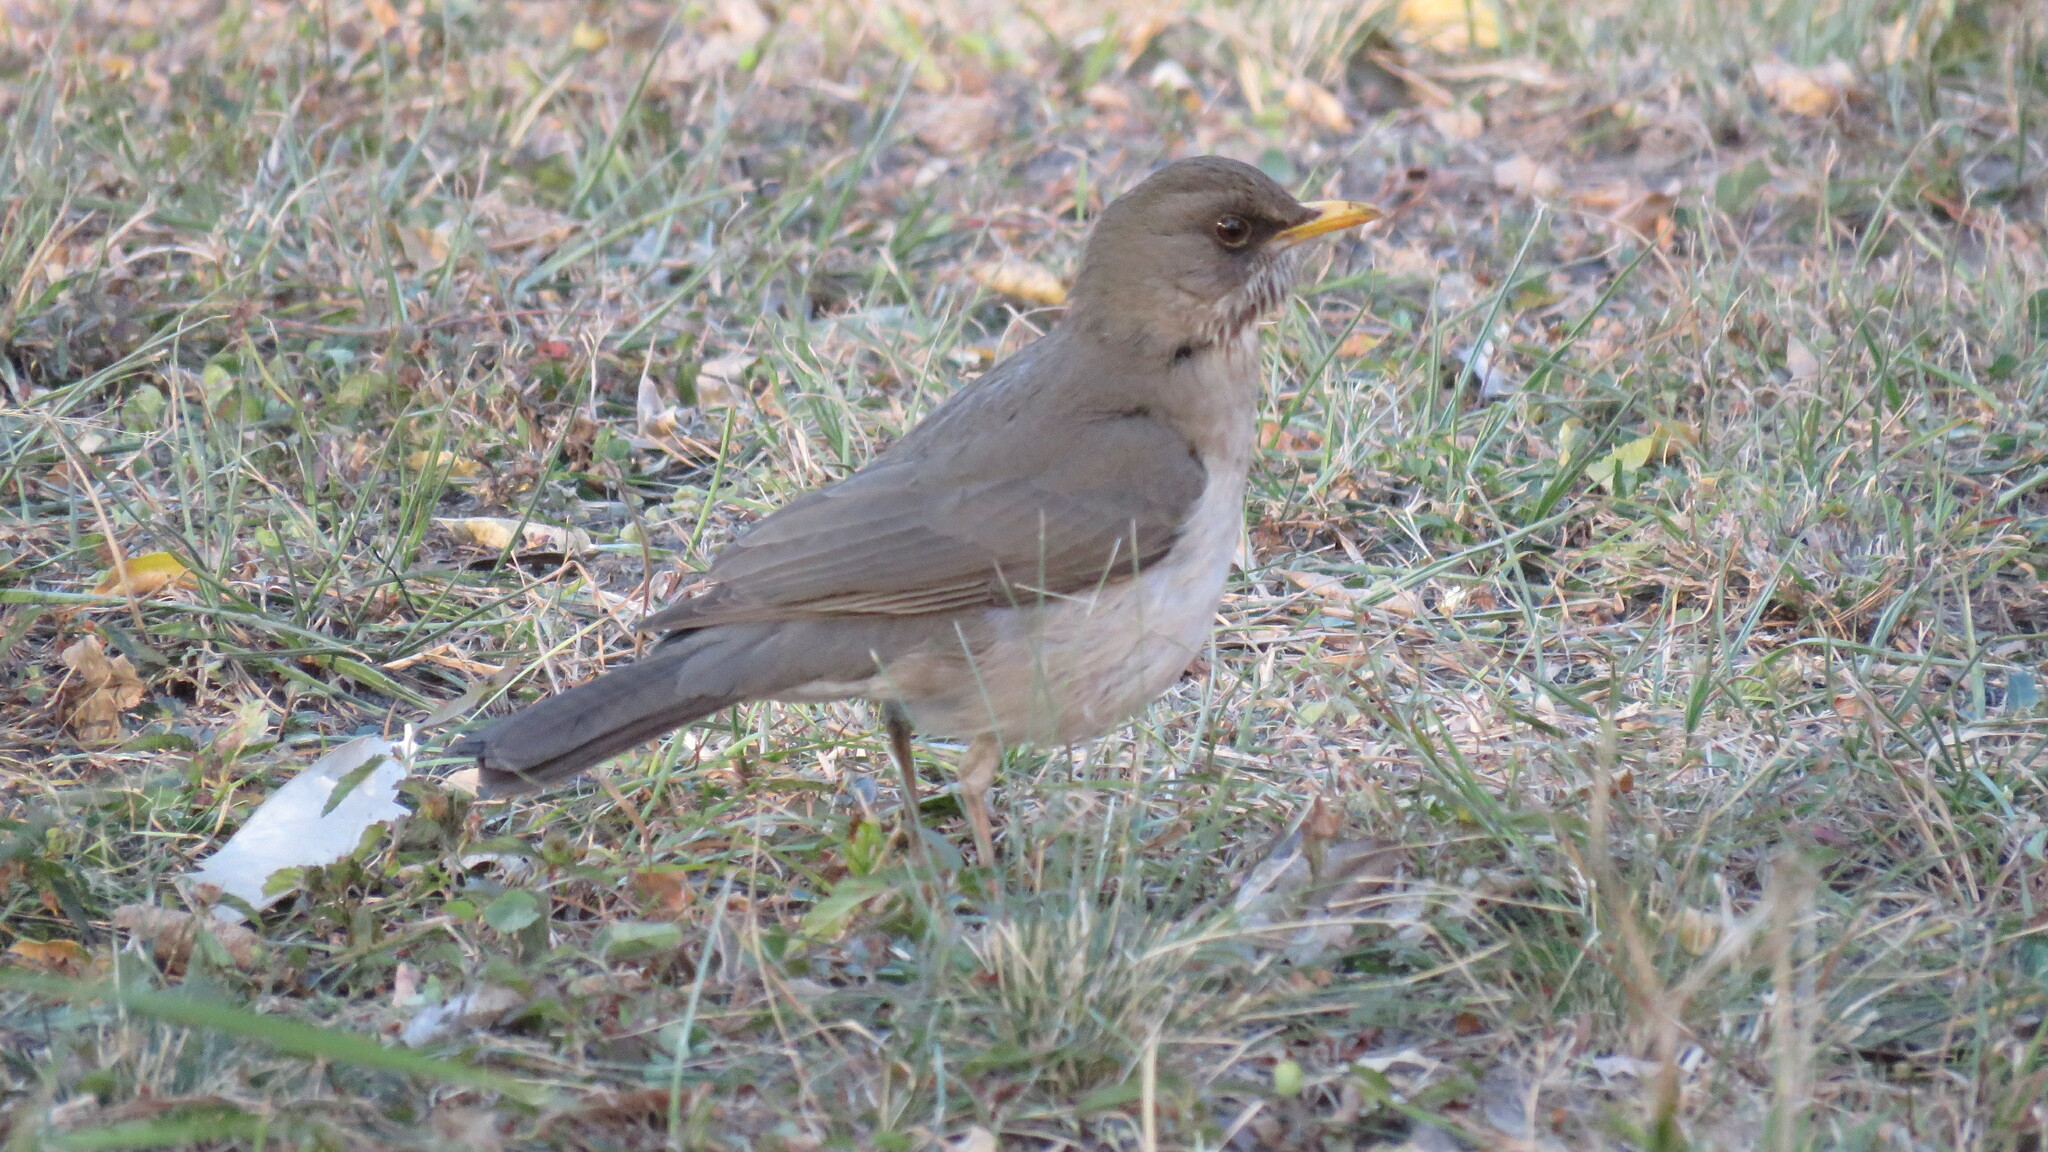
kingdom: Animalia
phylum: Chordata
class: Aves
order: Passeriformes
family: Turdidae
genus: Turdus
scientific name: Turdus amaurochalinus
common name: Creamy-bellied thrush
